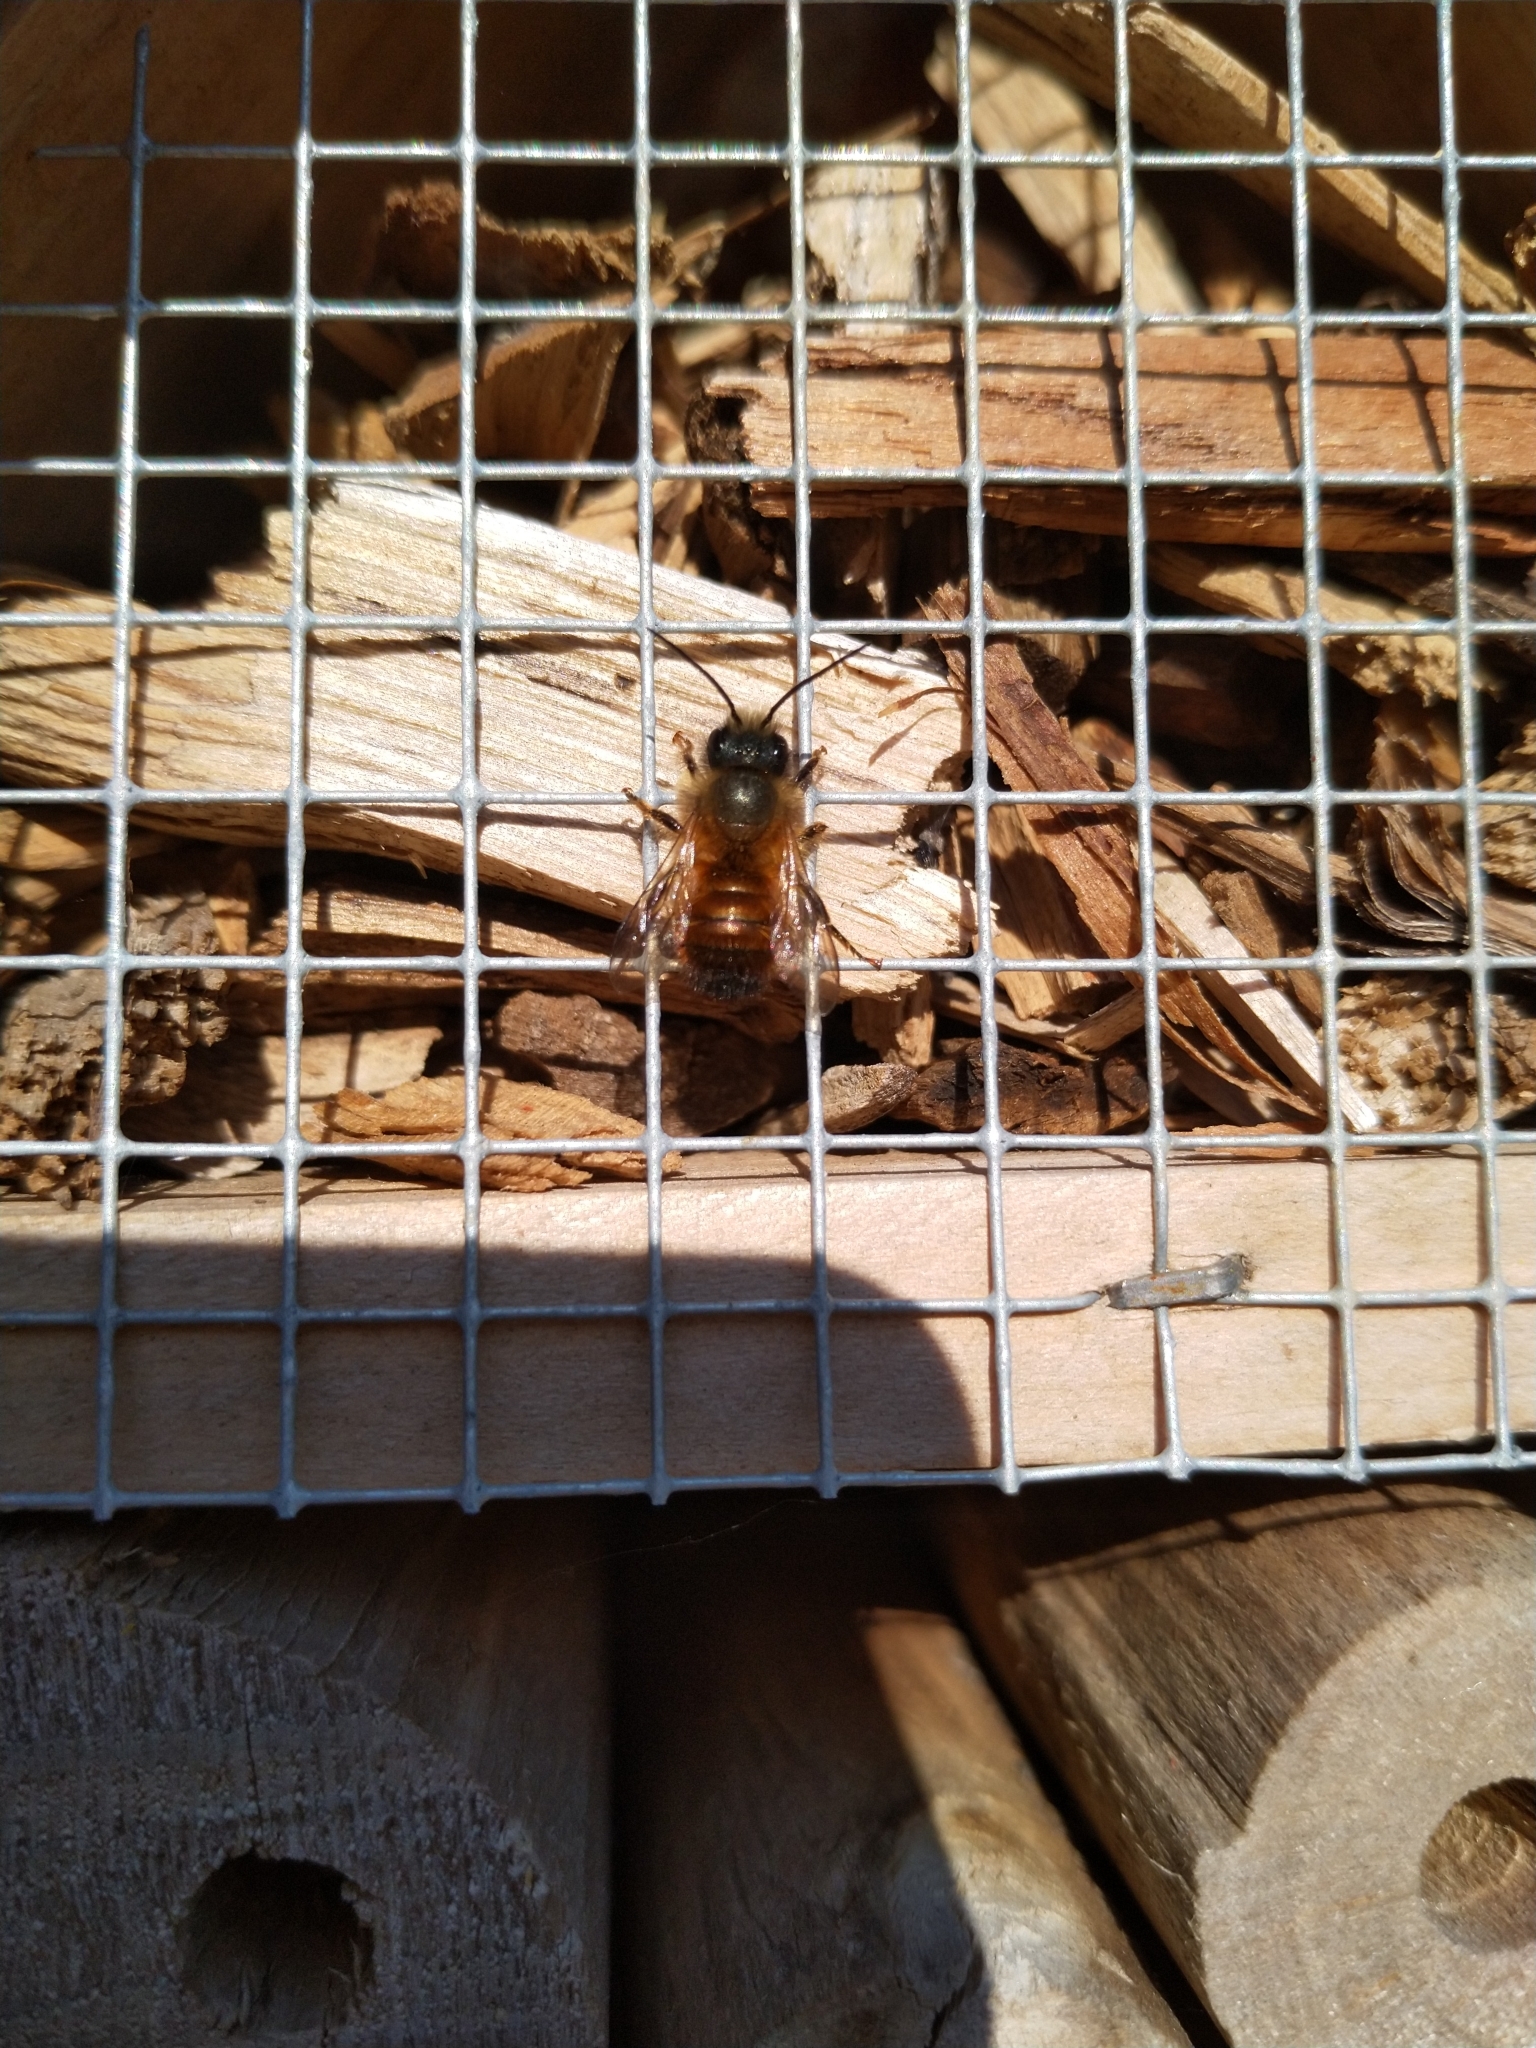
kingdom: Animalia
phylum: Arthropoda
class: Insecta
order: Hymenoptera
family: Megachilidae
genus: Osmia
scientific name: Osmia bicornis
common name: Red mason bee
